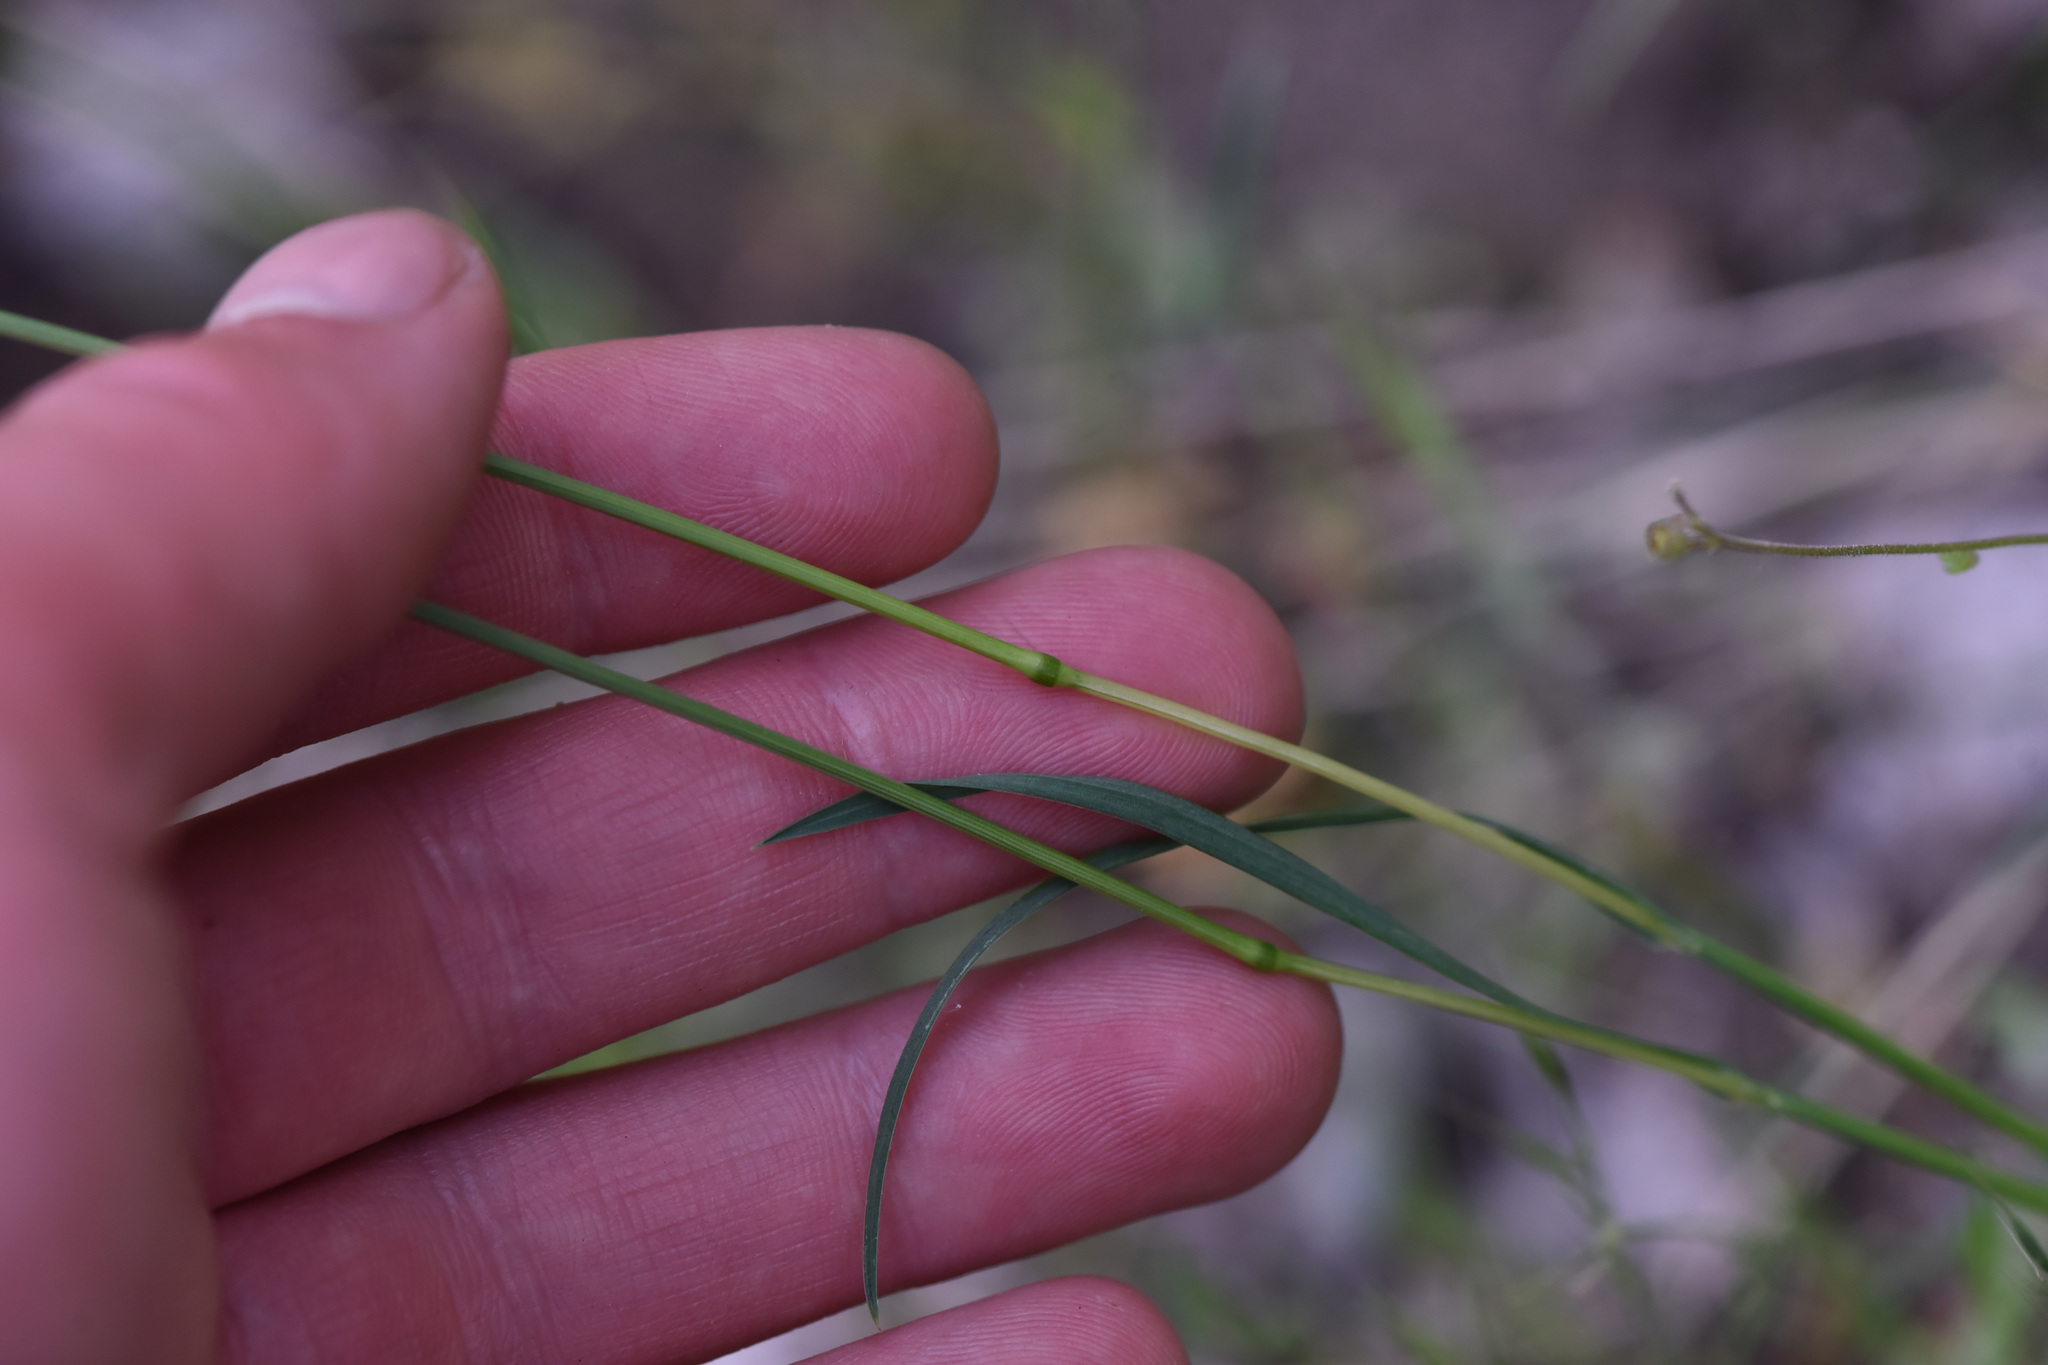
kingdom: Plantae
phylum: Tracheophyta
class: Liliopsida
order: Poales
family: Poaceae
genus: Poa
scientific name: Poa bulbosa
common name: Bulbous bluegrass
